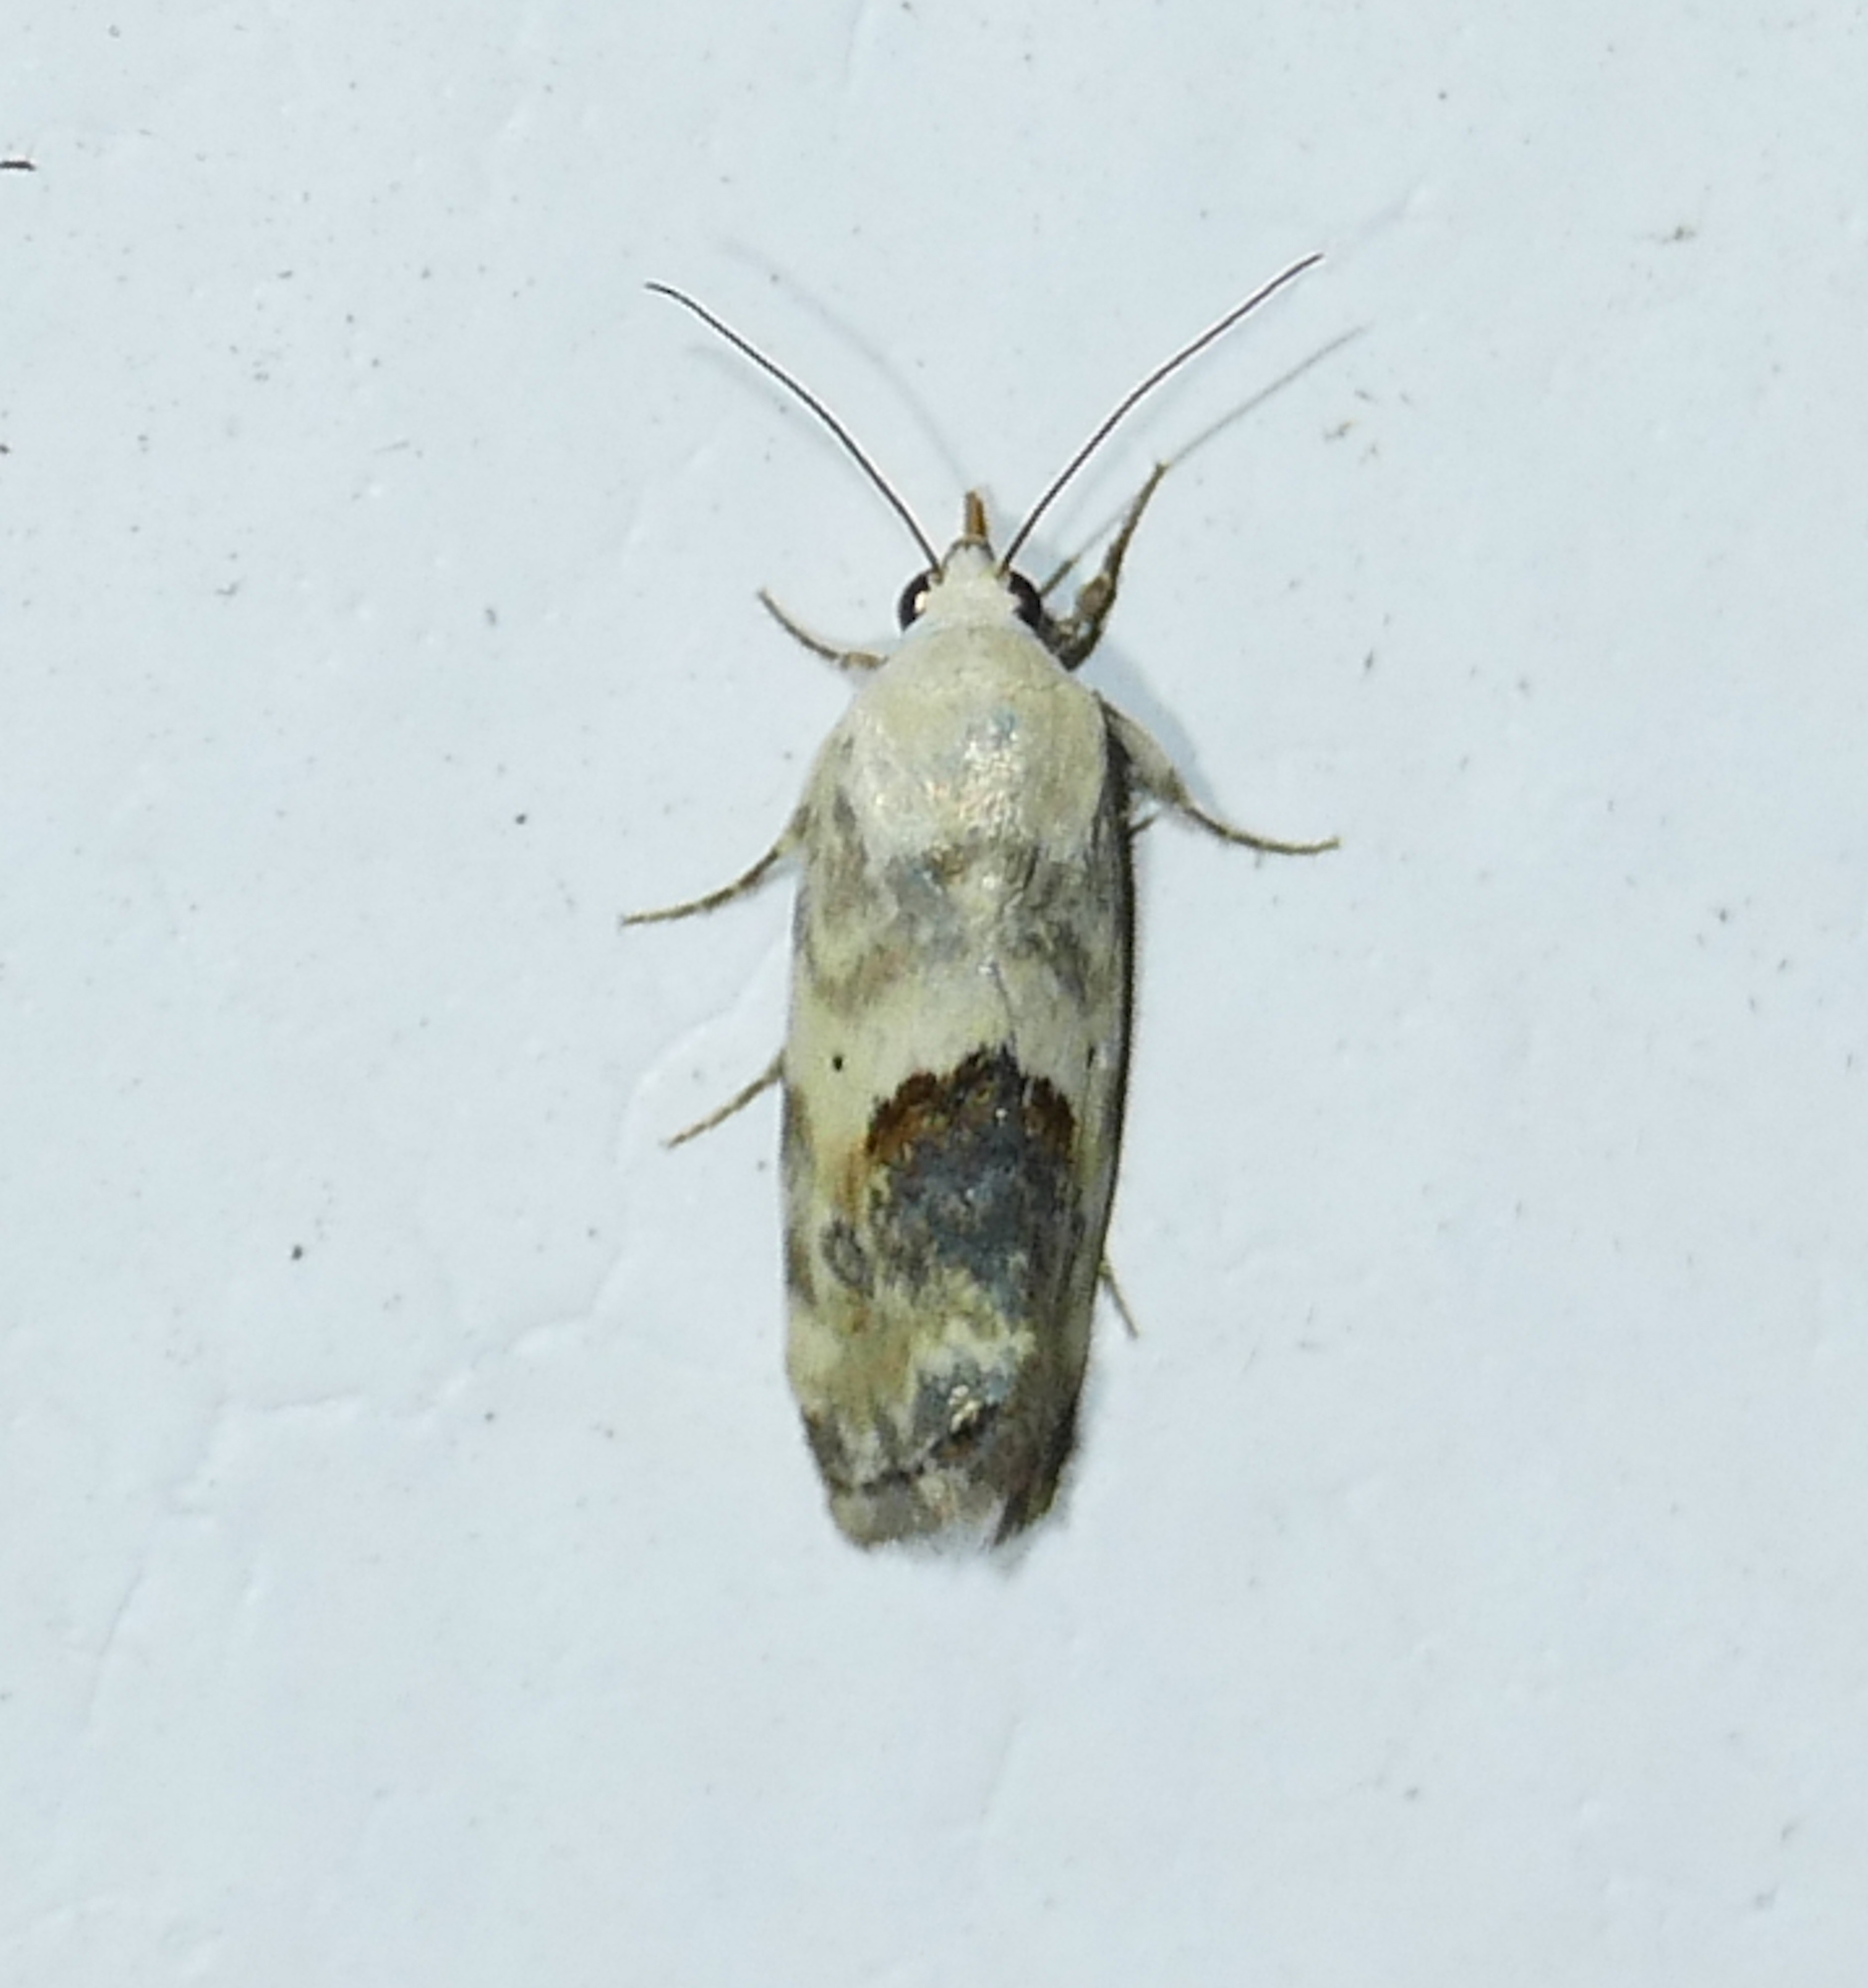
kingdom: Animalia
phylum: Arthropoda
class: Insecta
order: Lepidoptera
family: Noctuidae
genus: Acontia
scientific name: Acontia libedis
